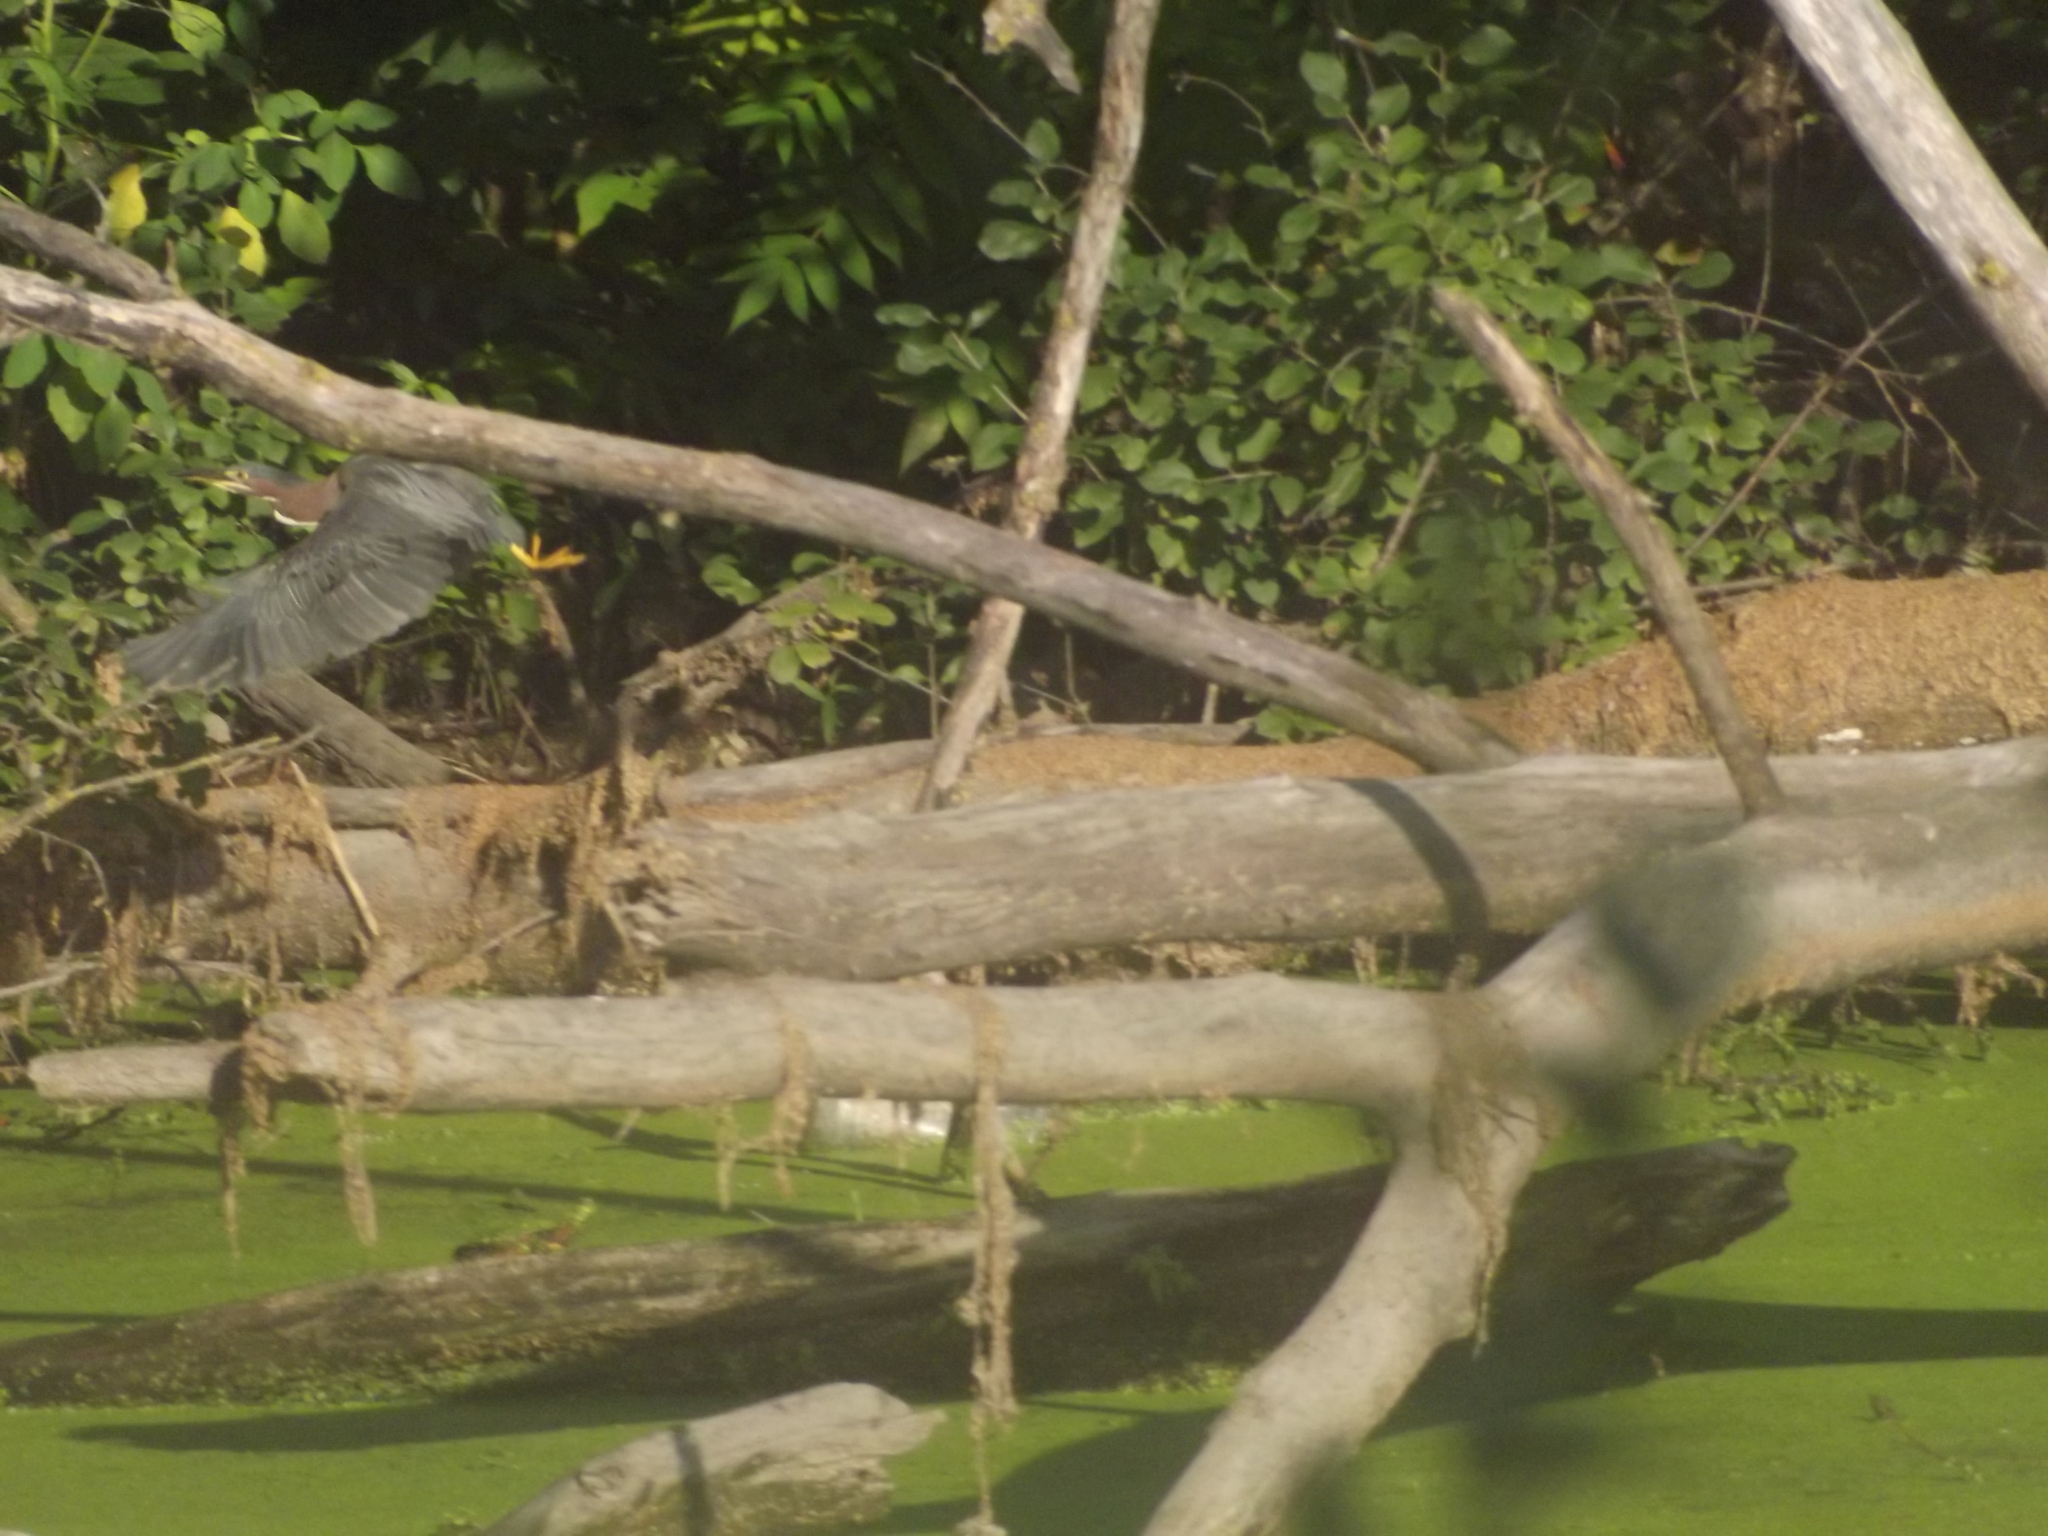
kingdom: Animalia
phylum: Chordata
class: Aves
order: Pelecaniformes
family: Ardeidae
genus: Butorides
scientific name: Butorides virescens
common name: Green heron
